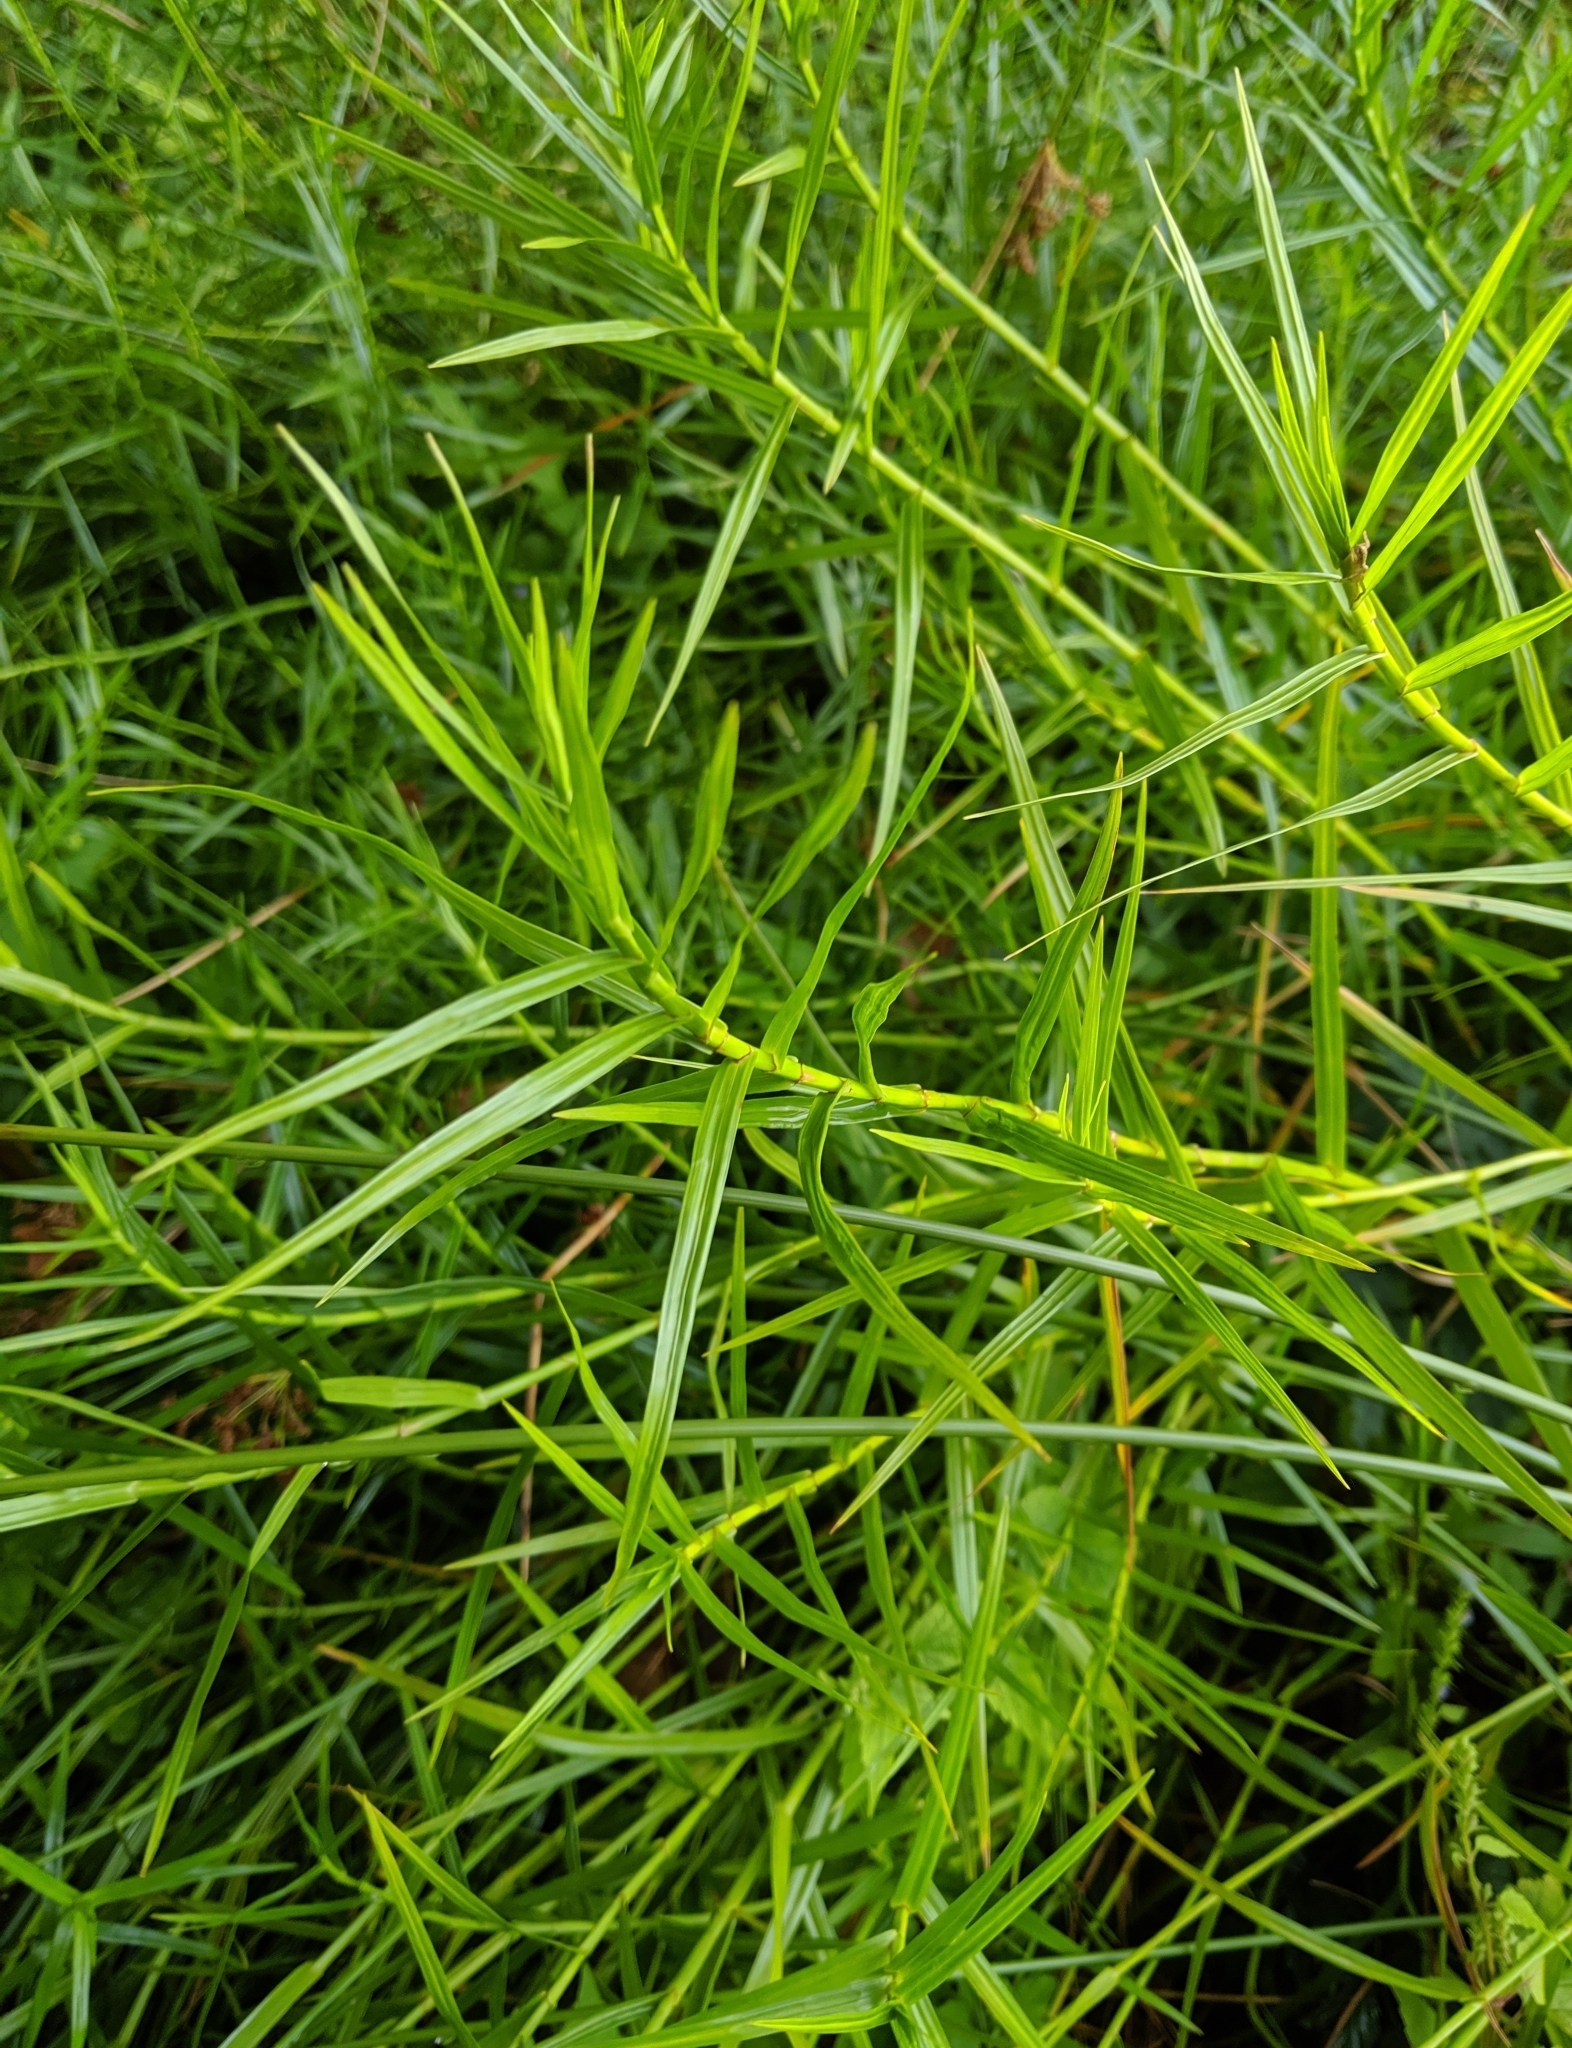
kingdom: Plantae
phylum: Tracheophyta
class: Liliopsida
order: Poales
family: Cyperaceae
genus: Dulichium
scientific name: Dulichium arundinaceum
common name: Three-way sedge
